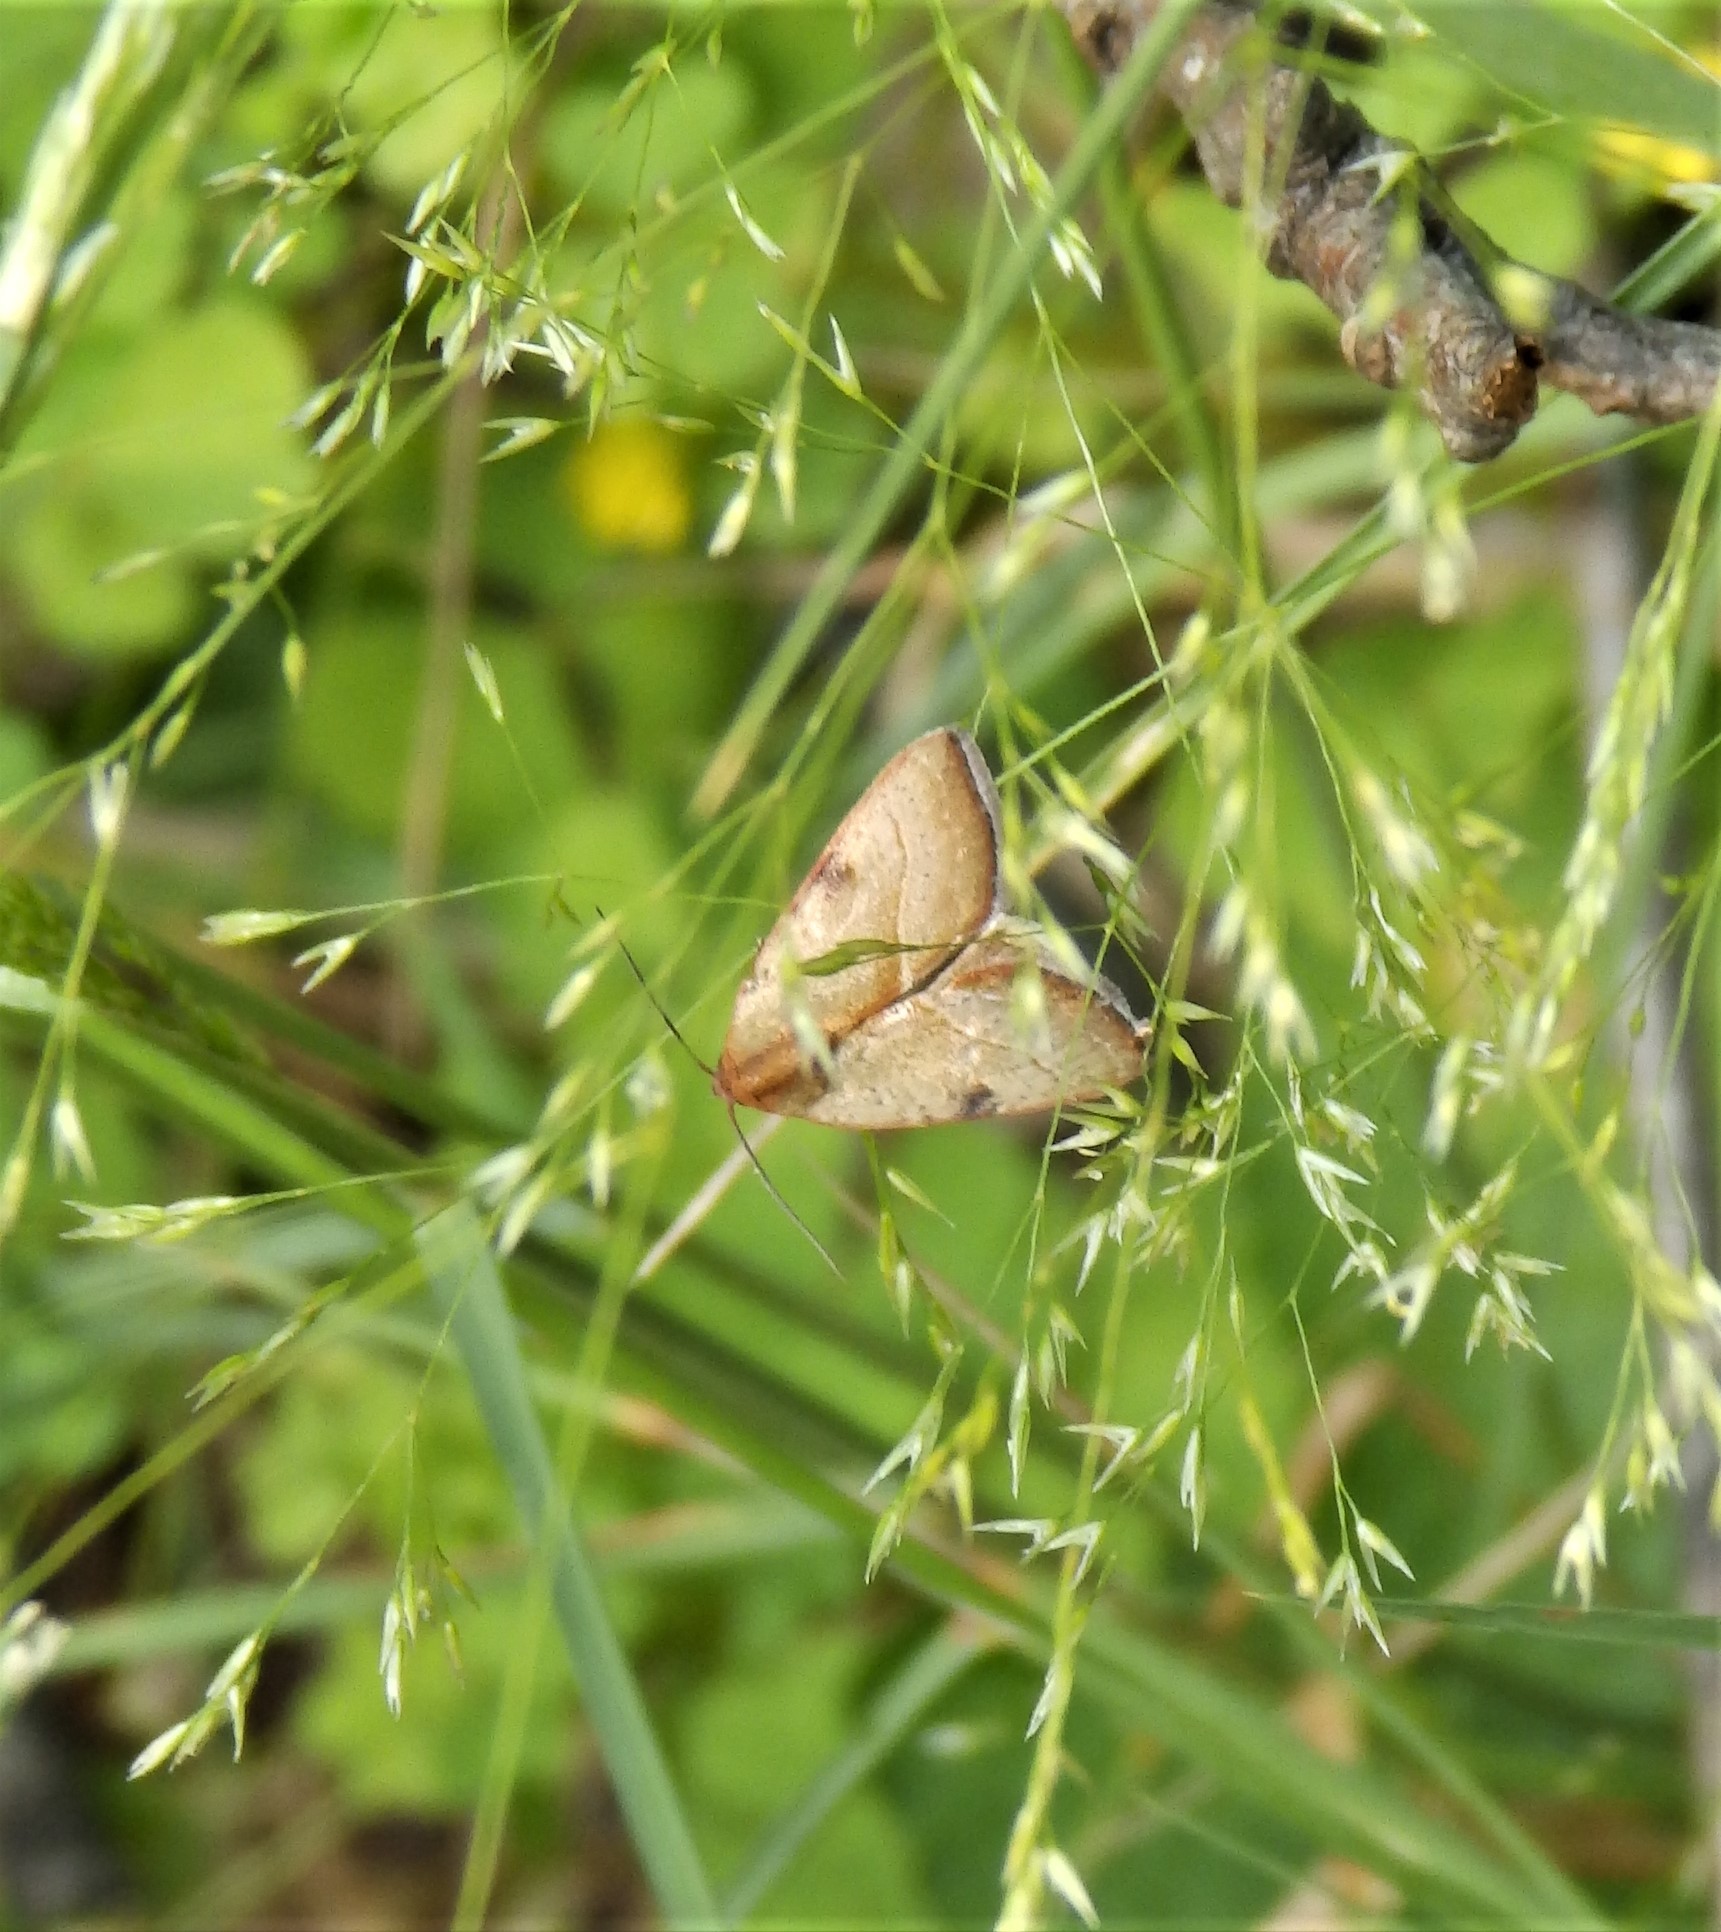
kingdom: Animalia
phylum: Arthropoda
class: Insecta
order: Lepidoptera
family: Noctuidae
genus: Galgula
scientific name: Galgula partita
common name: Wedgeling
